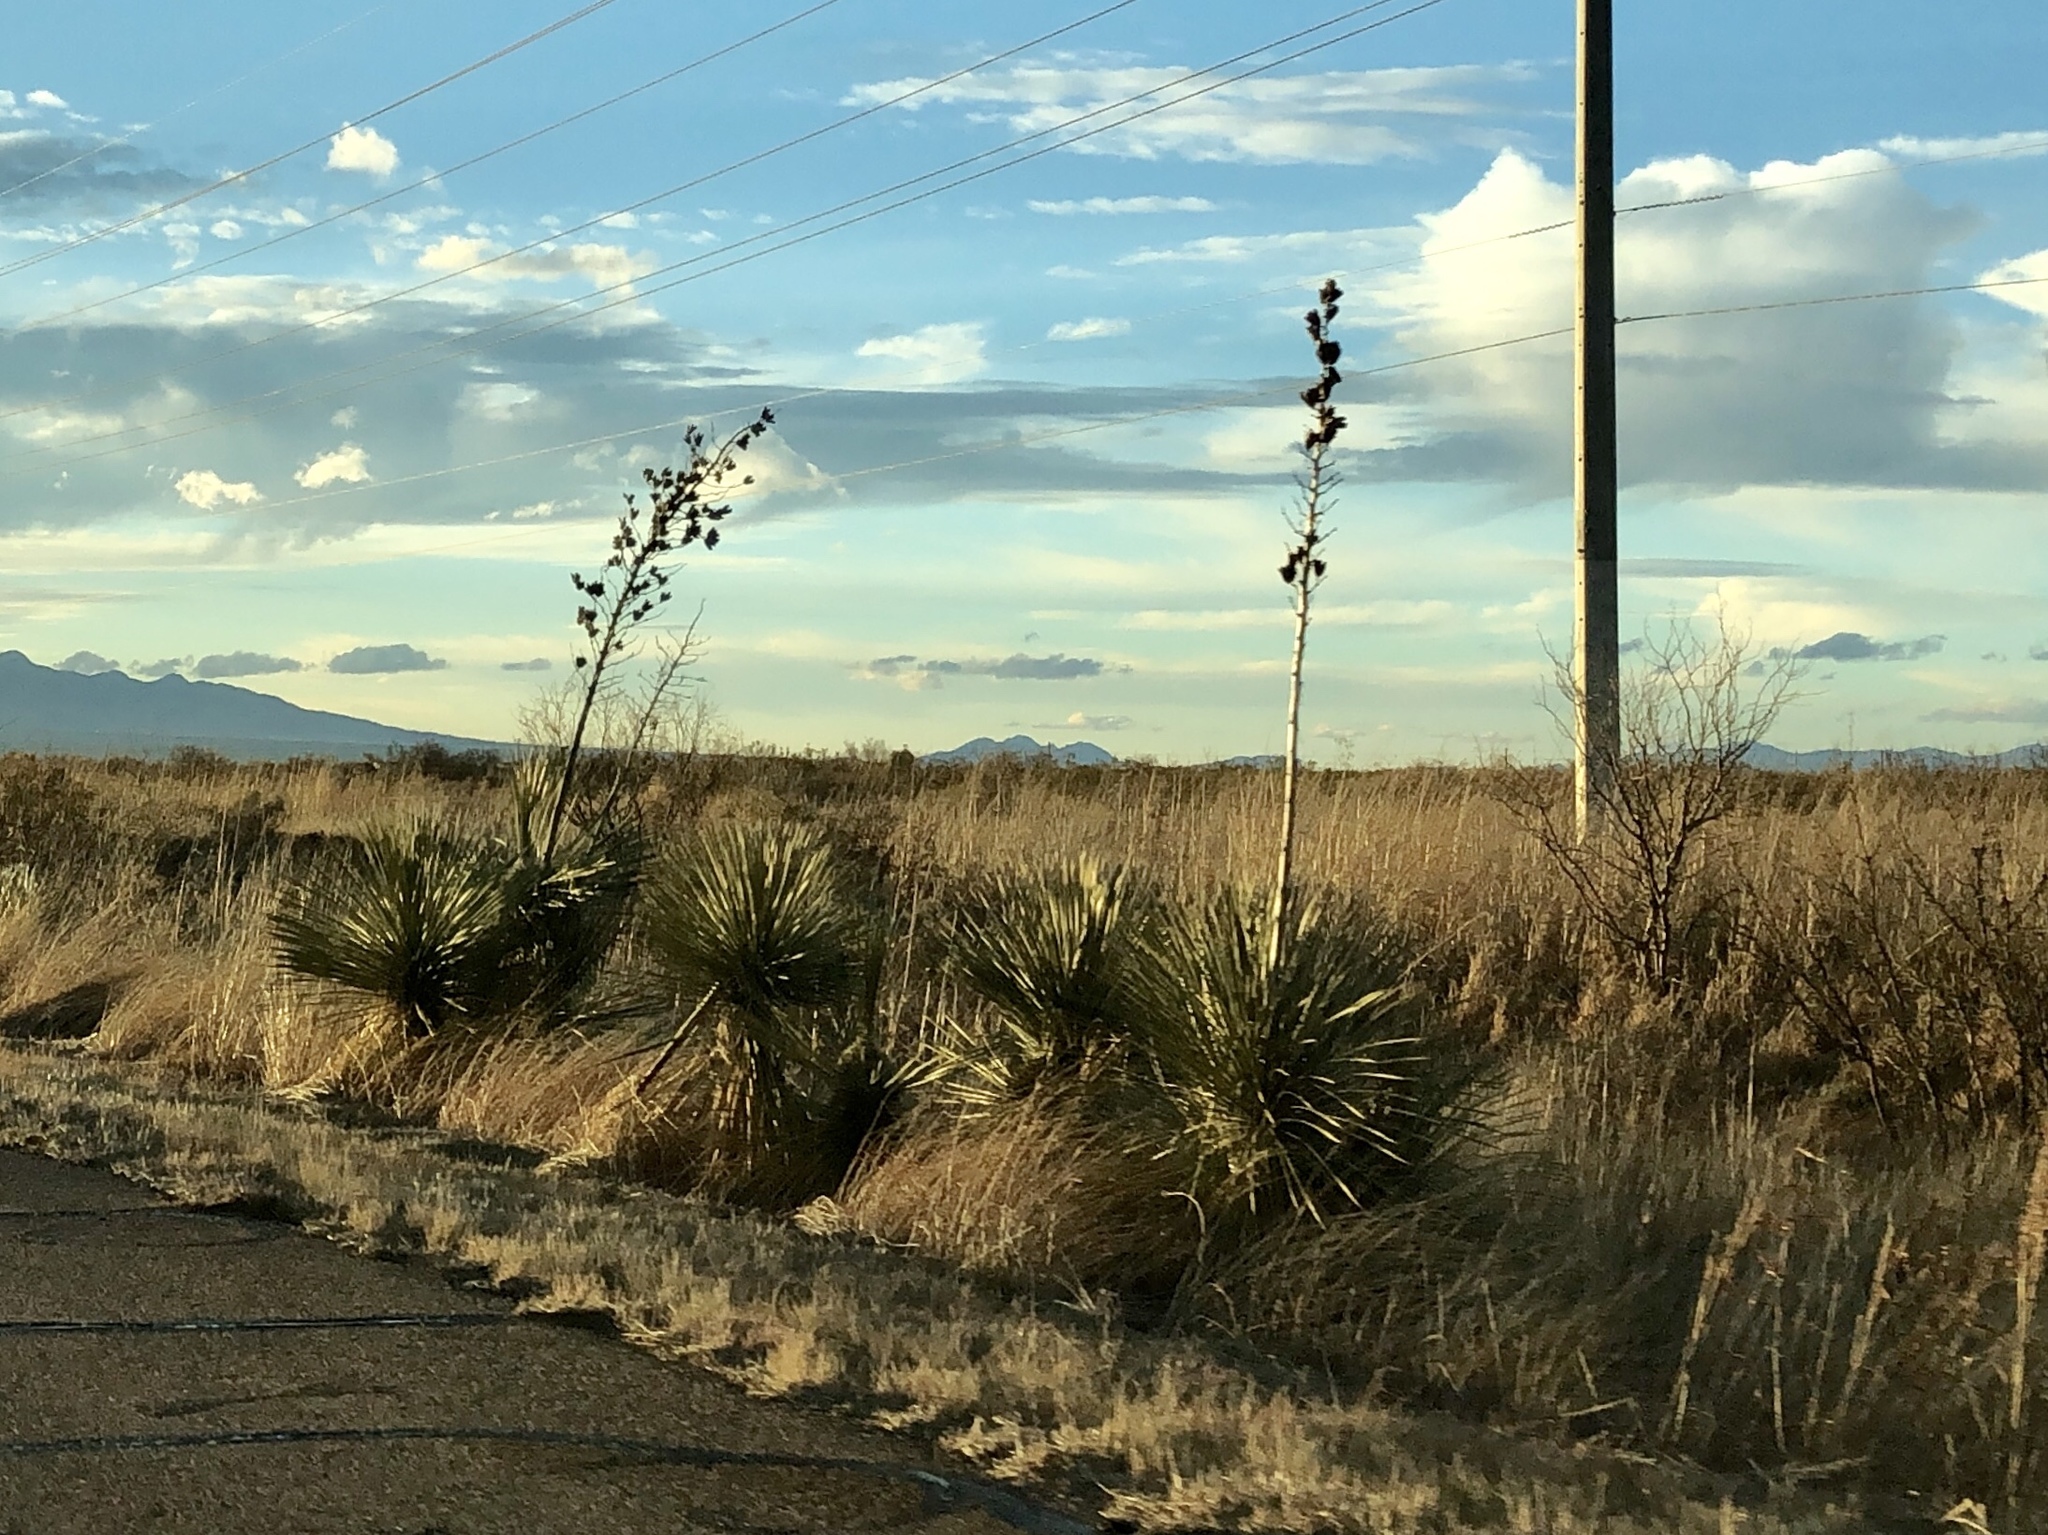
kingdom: Plantae
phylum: Tracheophyta
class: Liliopsida
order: Asparagales
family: Asparagaceae
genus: Yucca
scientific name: Yucca elata
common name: Palmella
